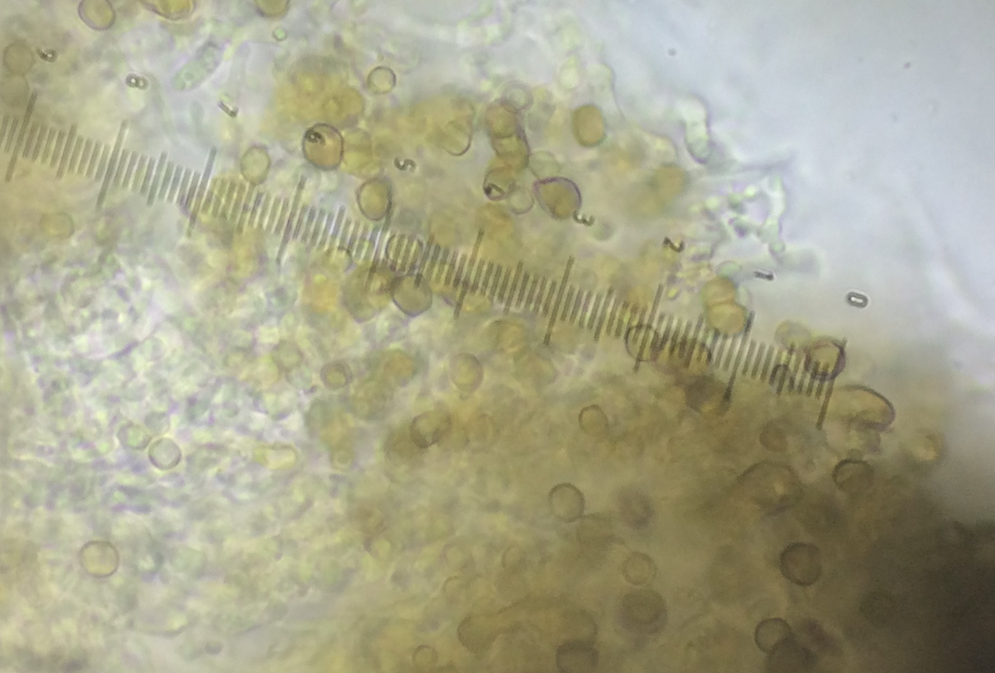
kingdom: Fungi
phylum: Ascomycota
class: Coniocybomycetes
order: Coniocybales
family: Coniocybaceae
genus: Chaenotheca
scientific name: Chaenotheca trichialis
